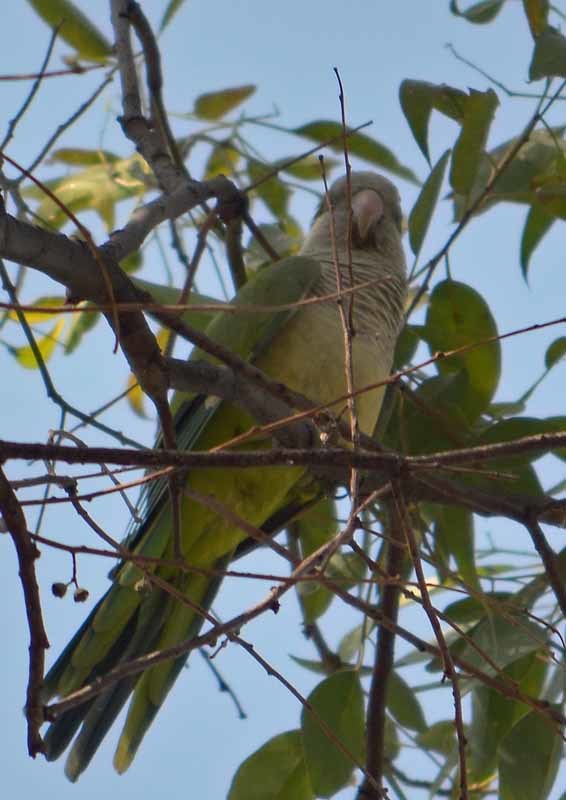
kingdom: Animalia
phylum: Chordata
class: Aves
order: Psittaciformes
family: Psittacidae
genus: Myiopsitta
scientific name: Myiopsitta monachus
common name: Monk parakeet
